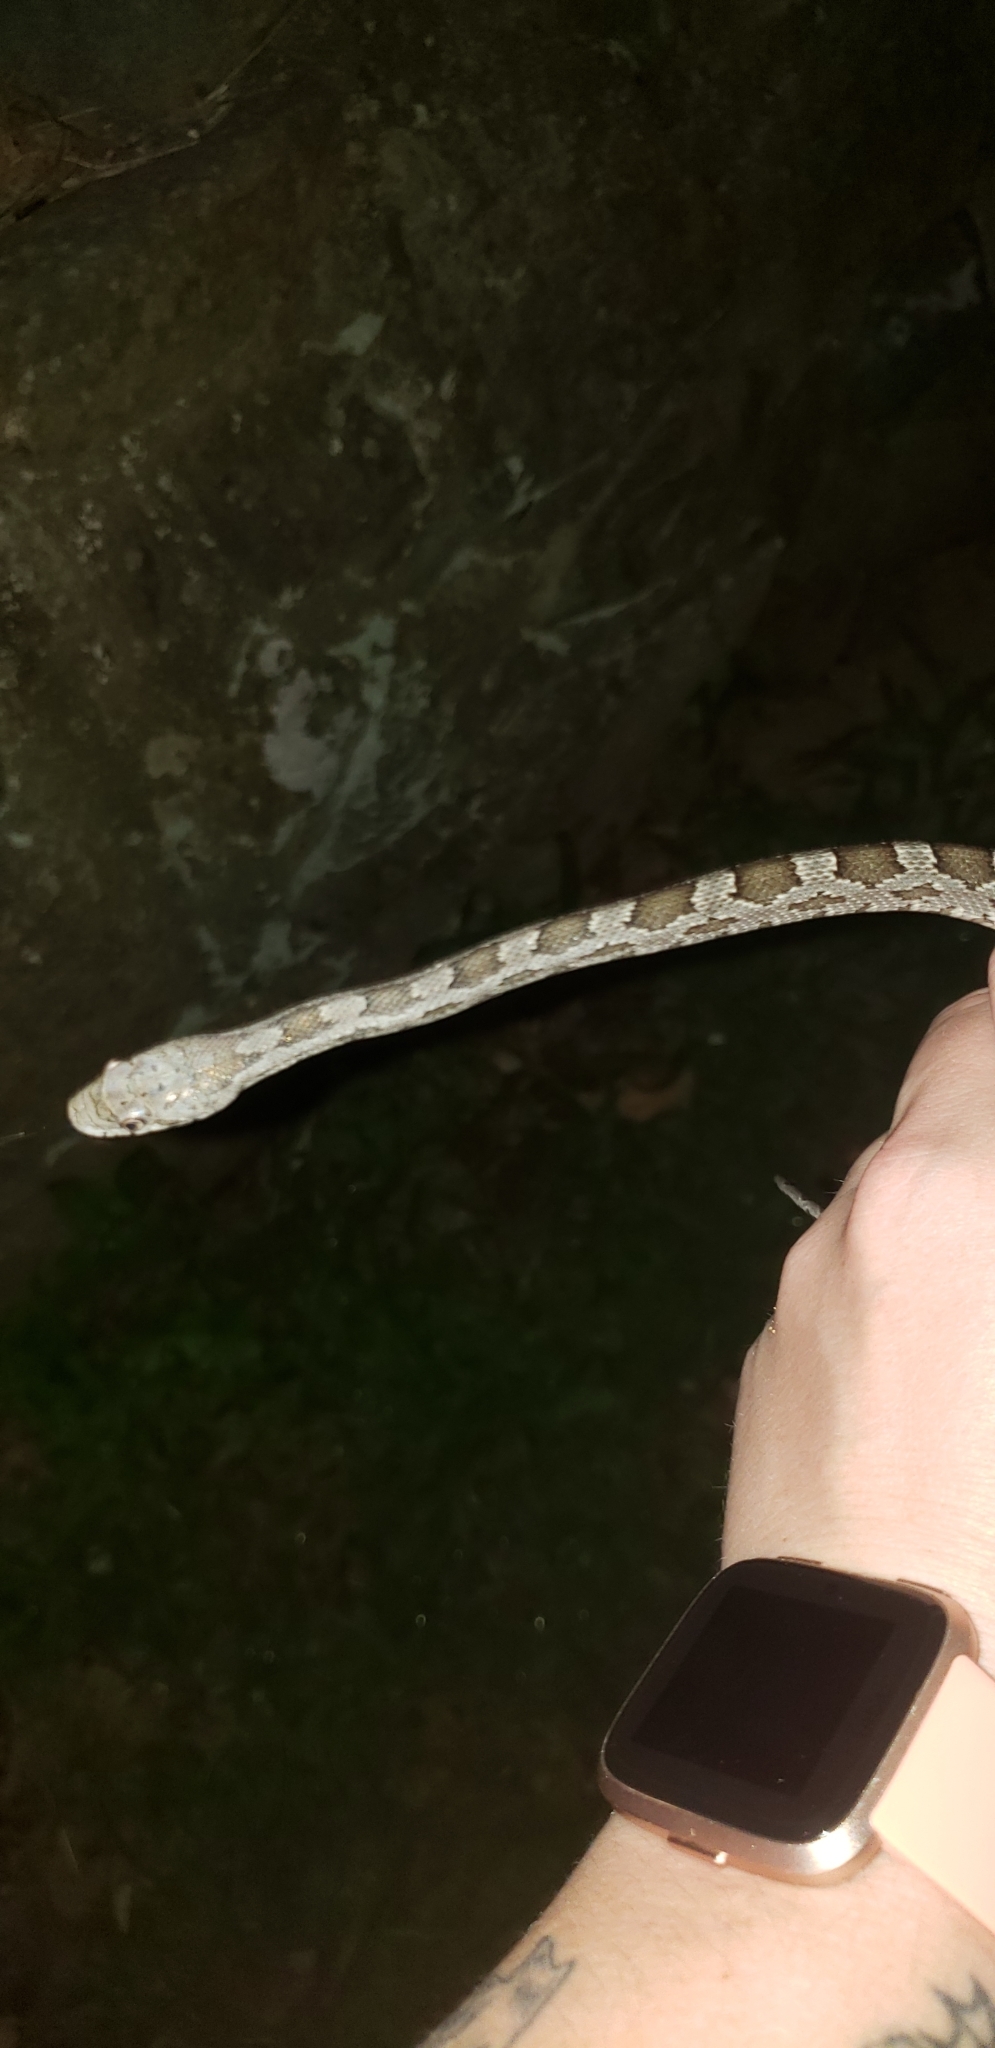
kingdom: Animalia
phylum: Chordata
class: Squamata
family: Colubridae
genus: Pantherophis
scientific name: Pantherophis alleghaniensis
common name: Eastern rat snake
